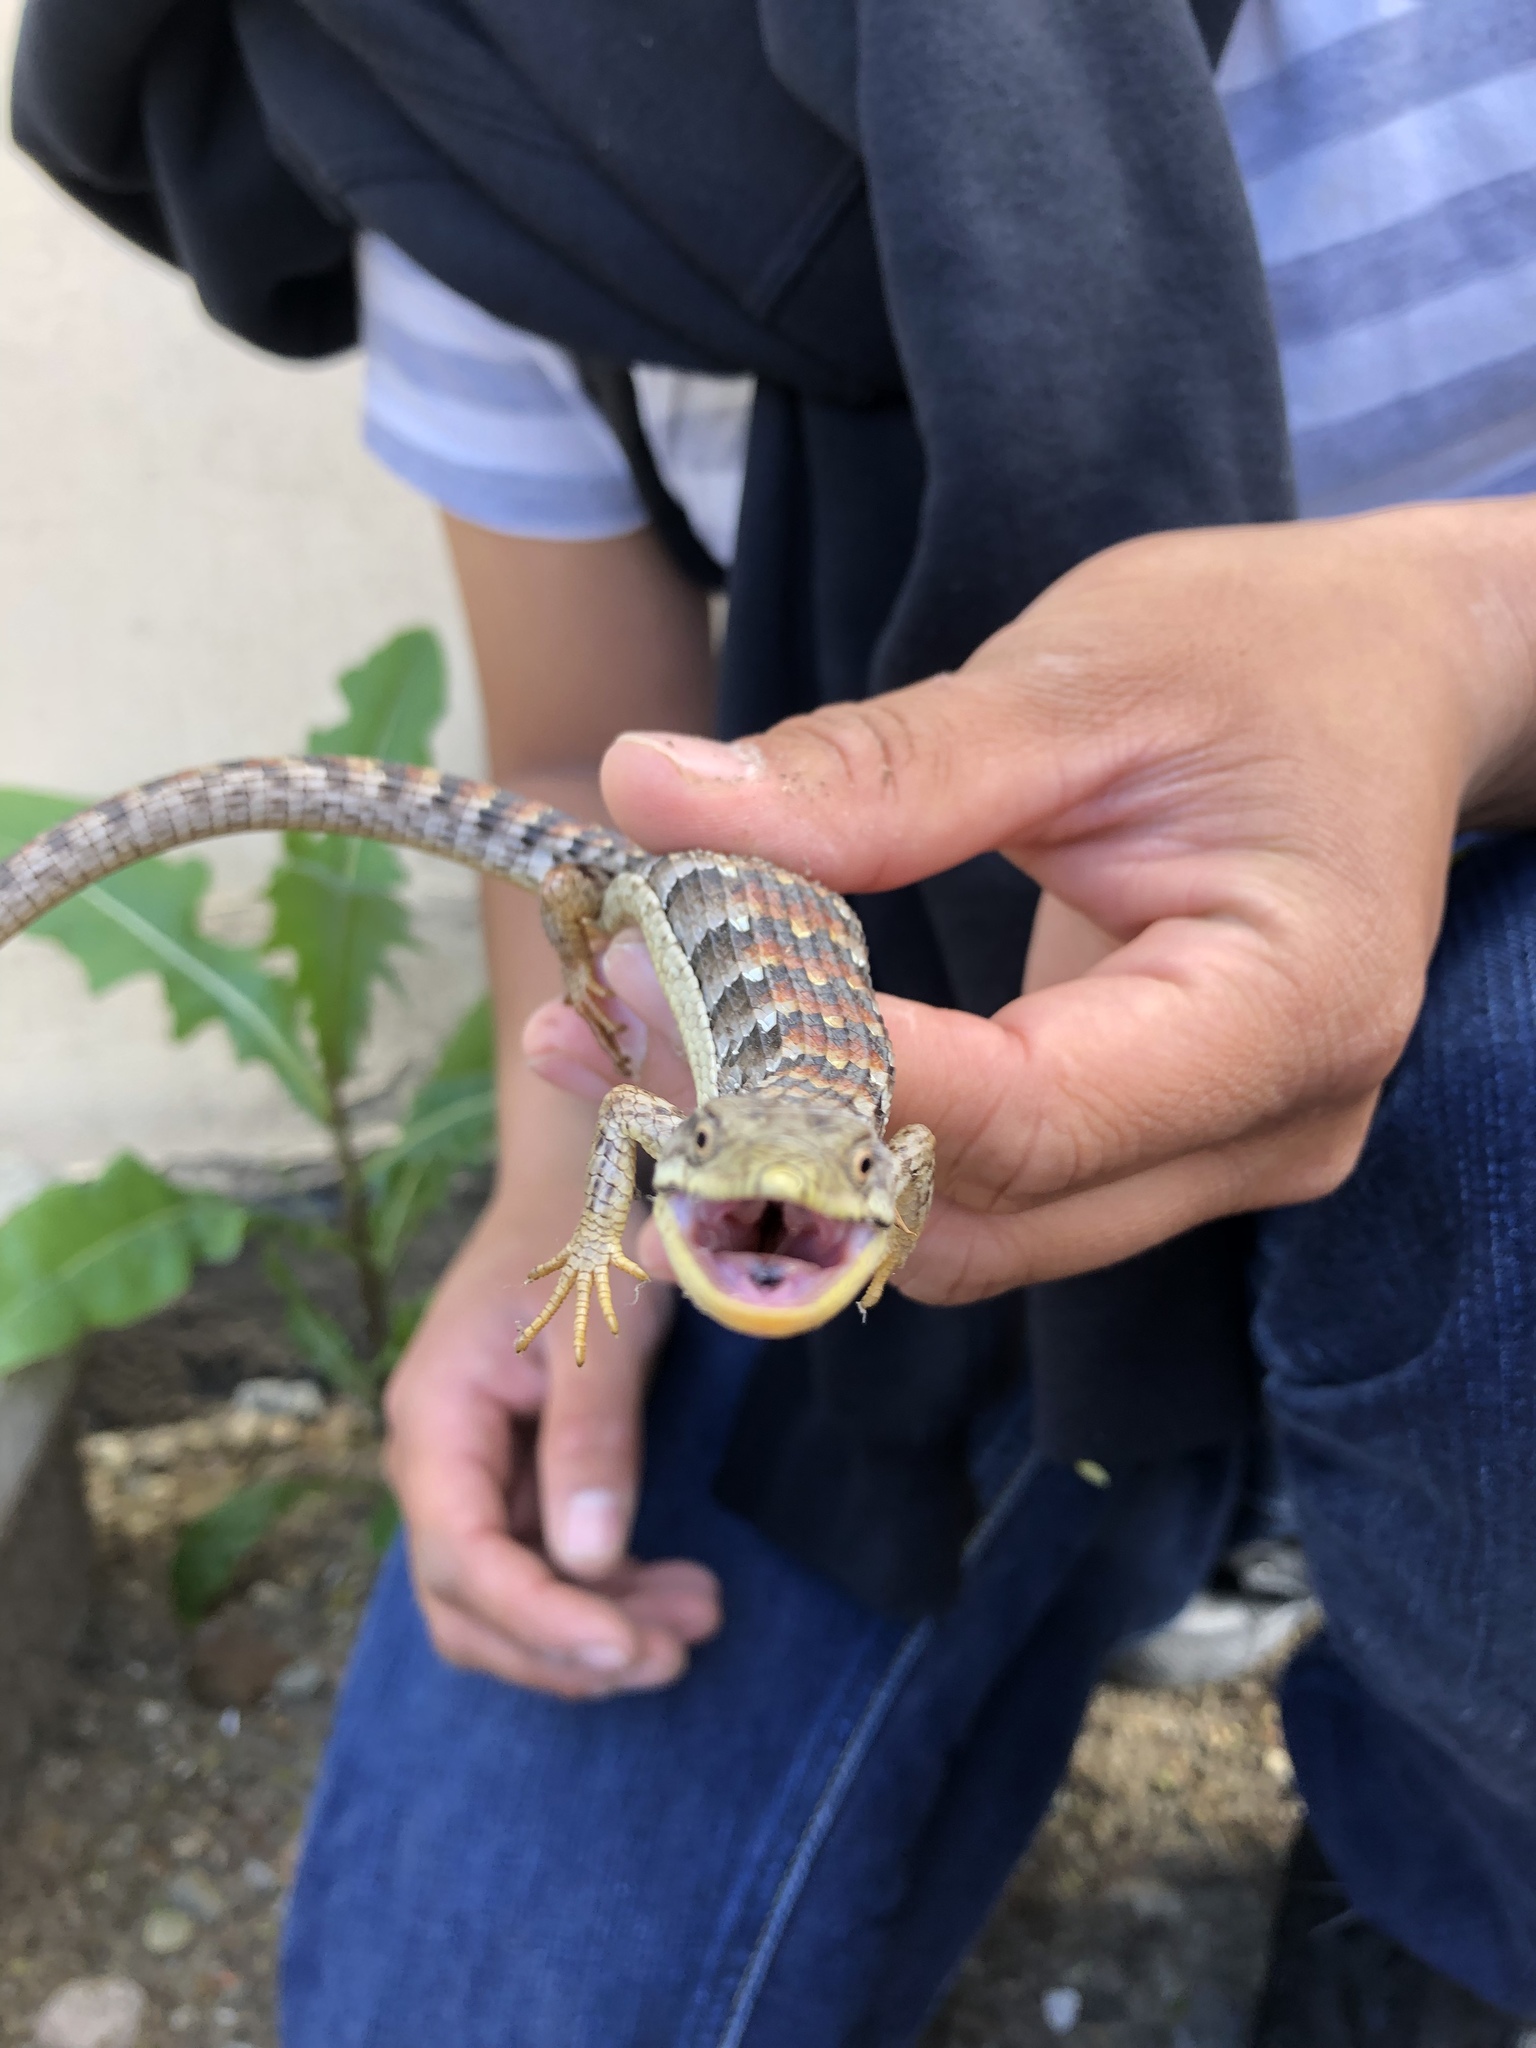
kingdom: Animalia
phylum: Chordata
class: Squamata
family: Anguidae
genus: Elgaria
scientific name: Elgaria multicarinata
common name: Southern alligator lizard
